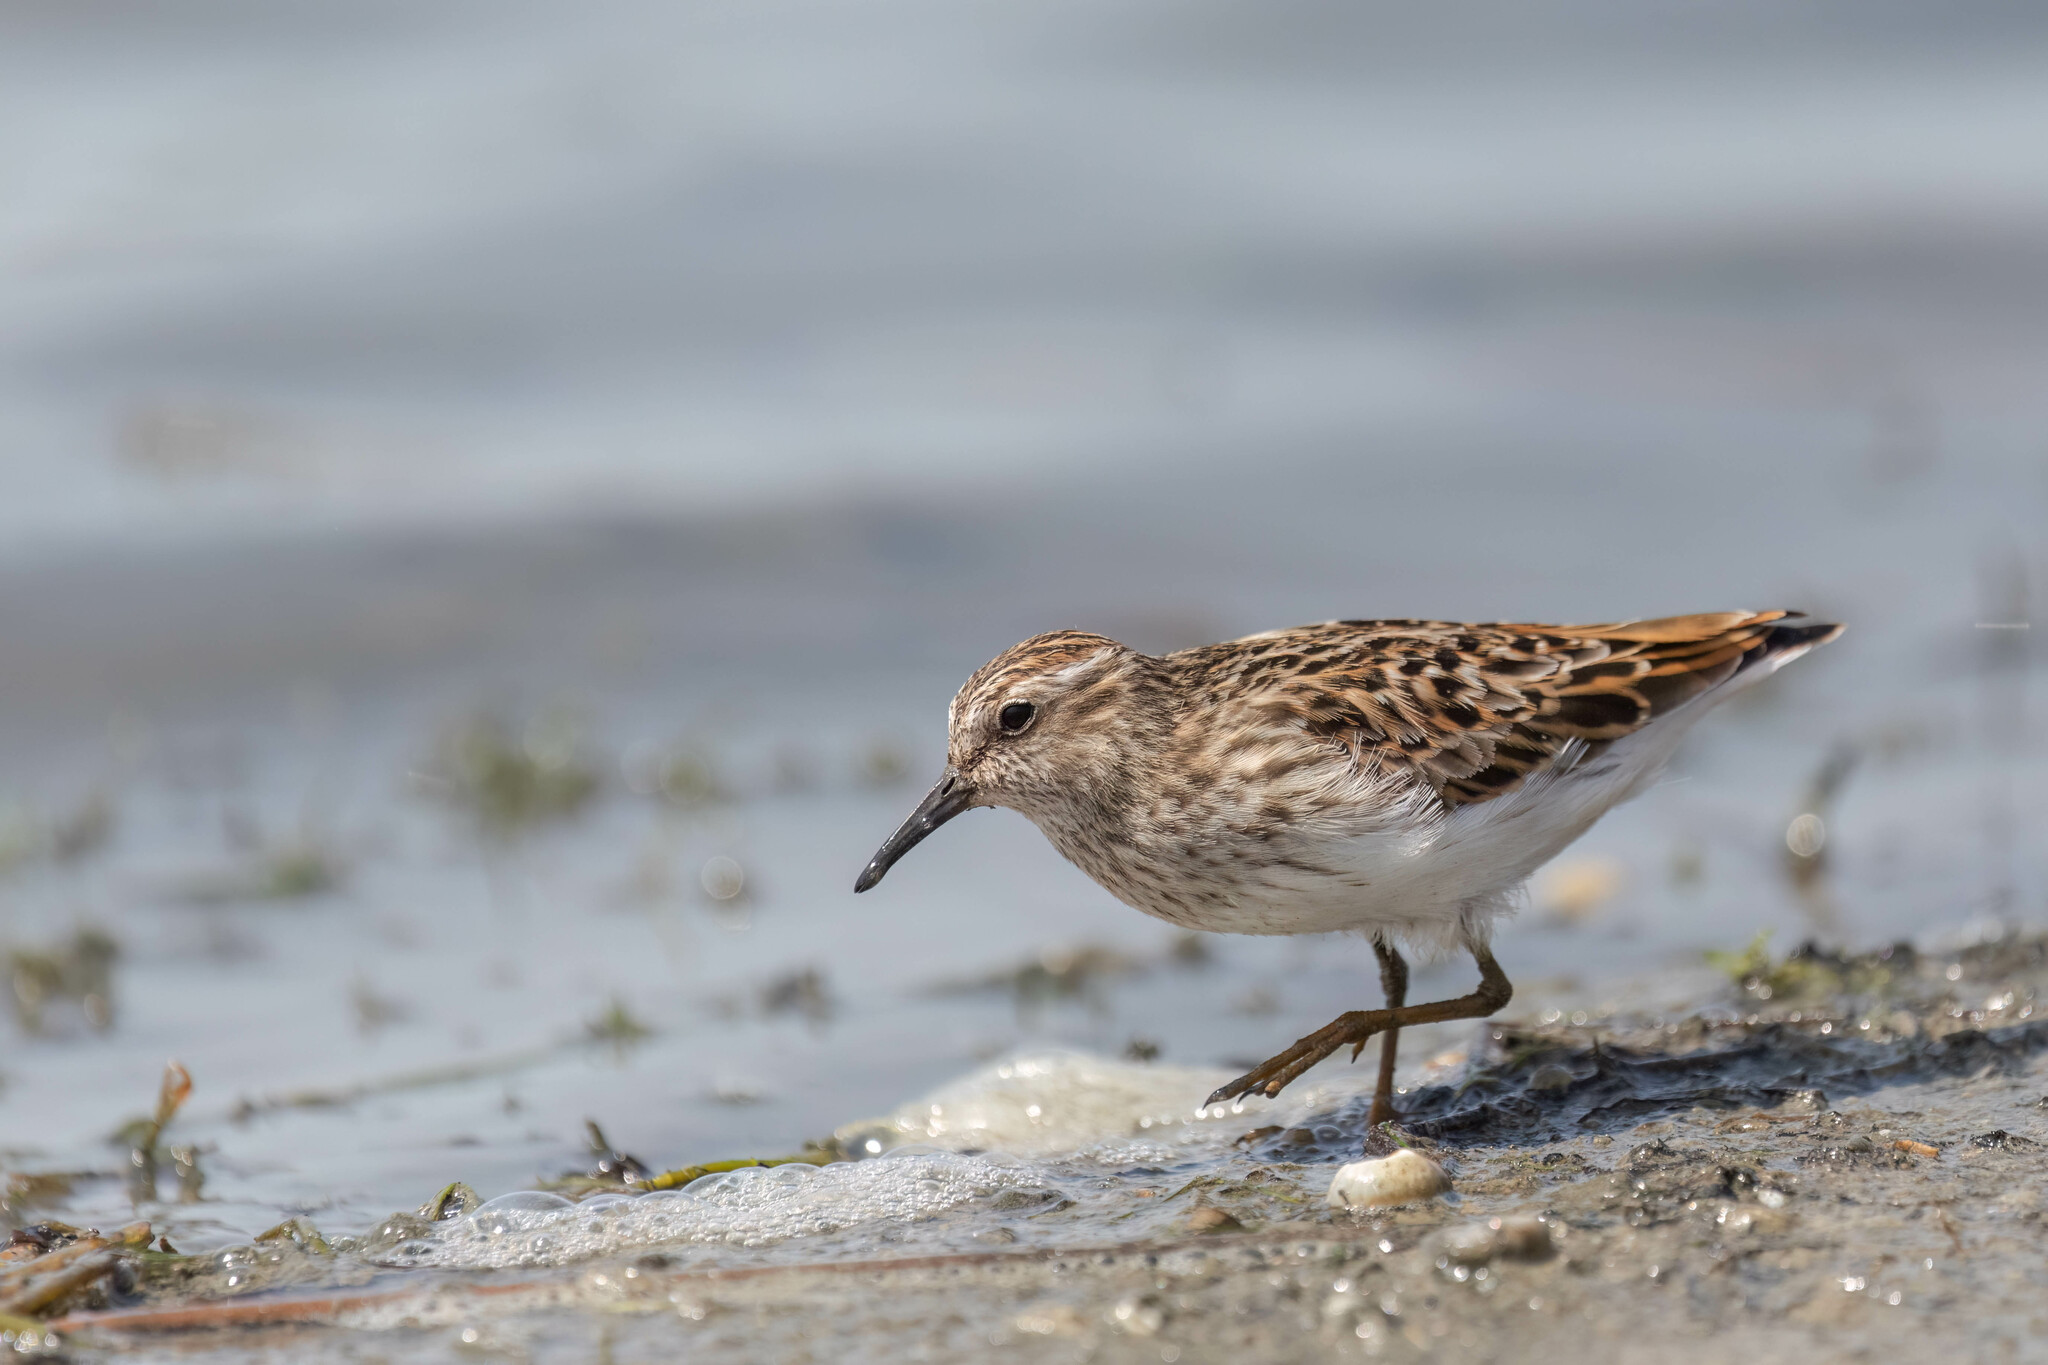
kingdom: Animalia
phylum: Chordata
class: Aves
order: Charadriiformes
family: Scolopacidae
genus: Calidris
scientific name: Calidris minutilla
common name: Least sandpiper
